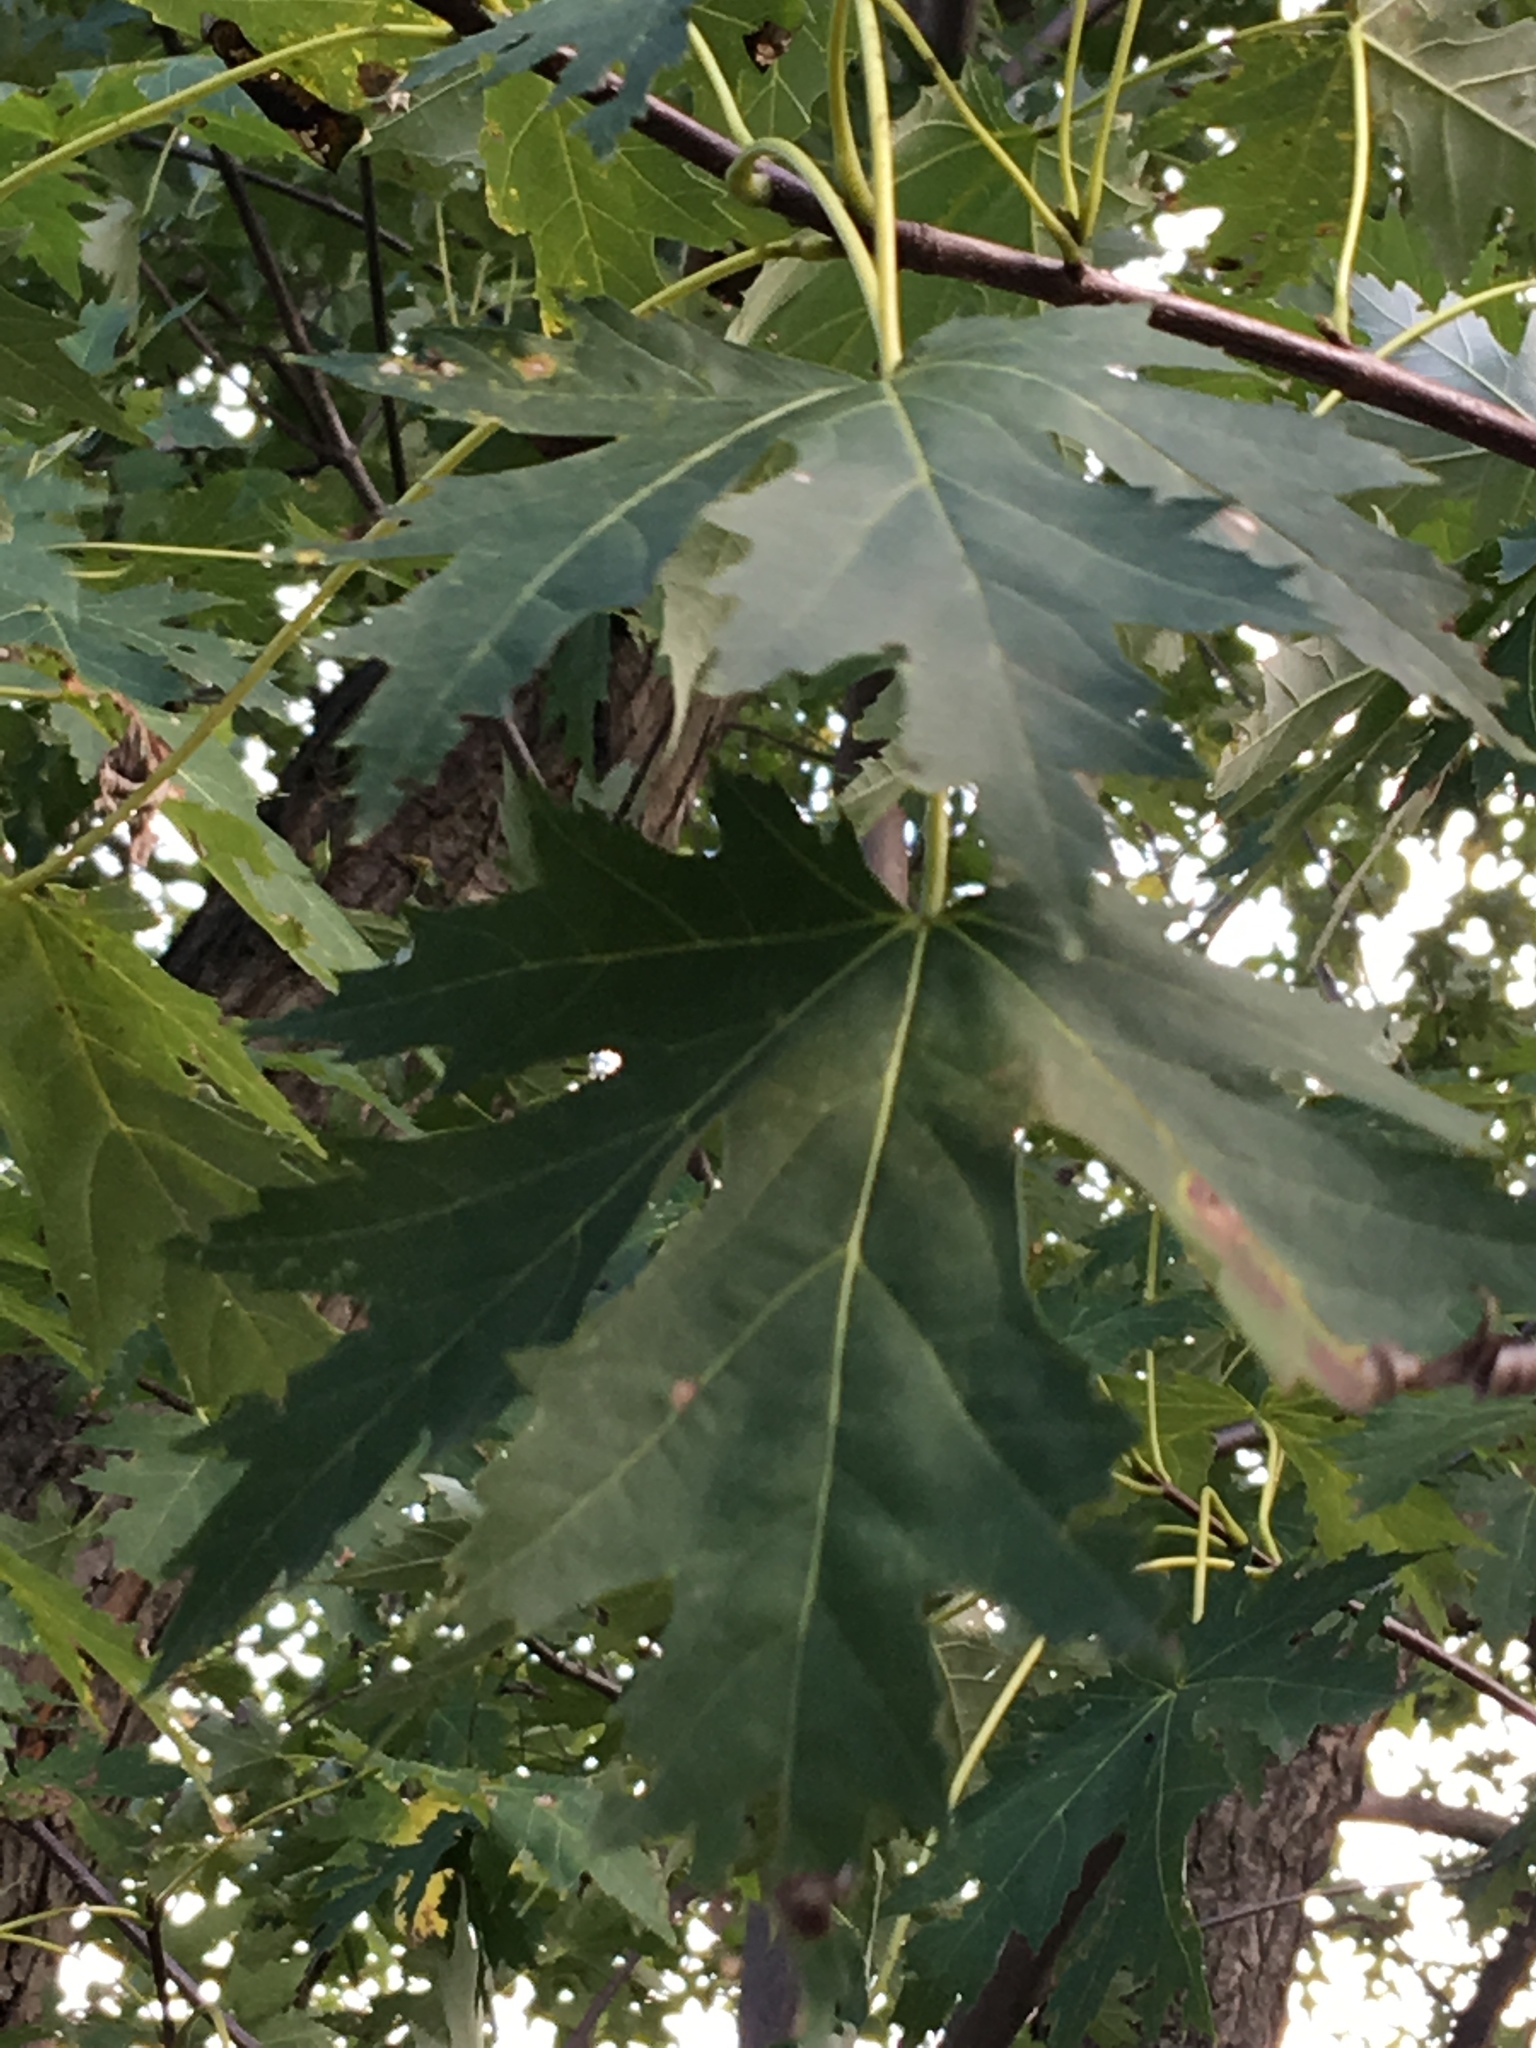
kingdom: Plantae
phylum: Tracheophyta
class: Magnoliopsida
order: Sapindales
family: Sapindaceae
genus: Acer
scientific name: Acer saccharinum
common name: Silver maple
